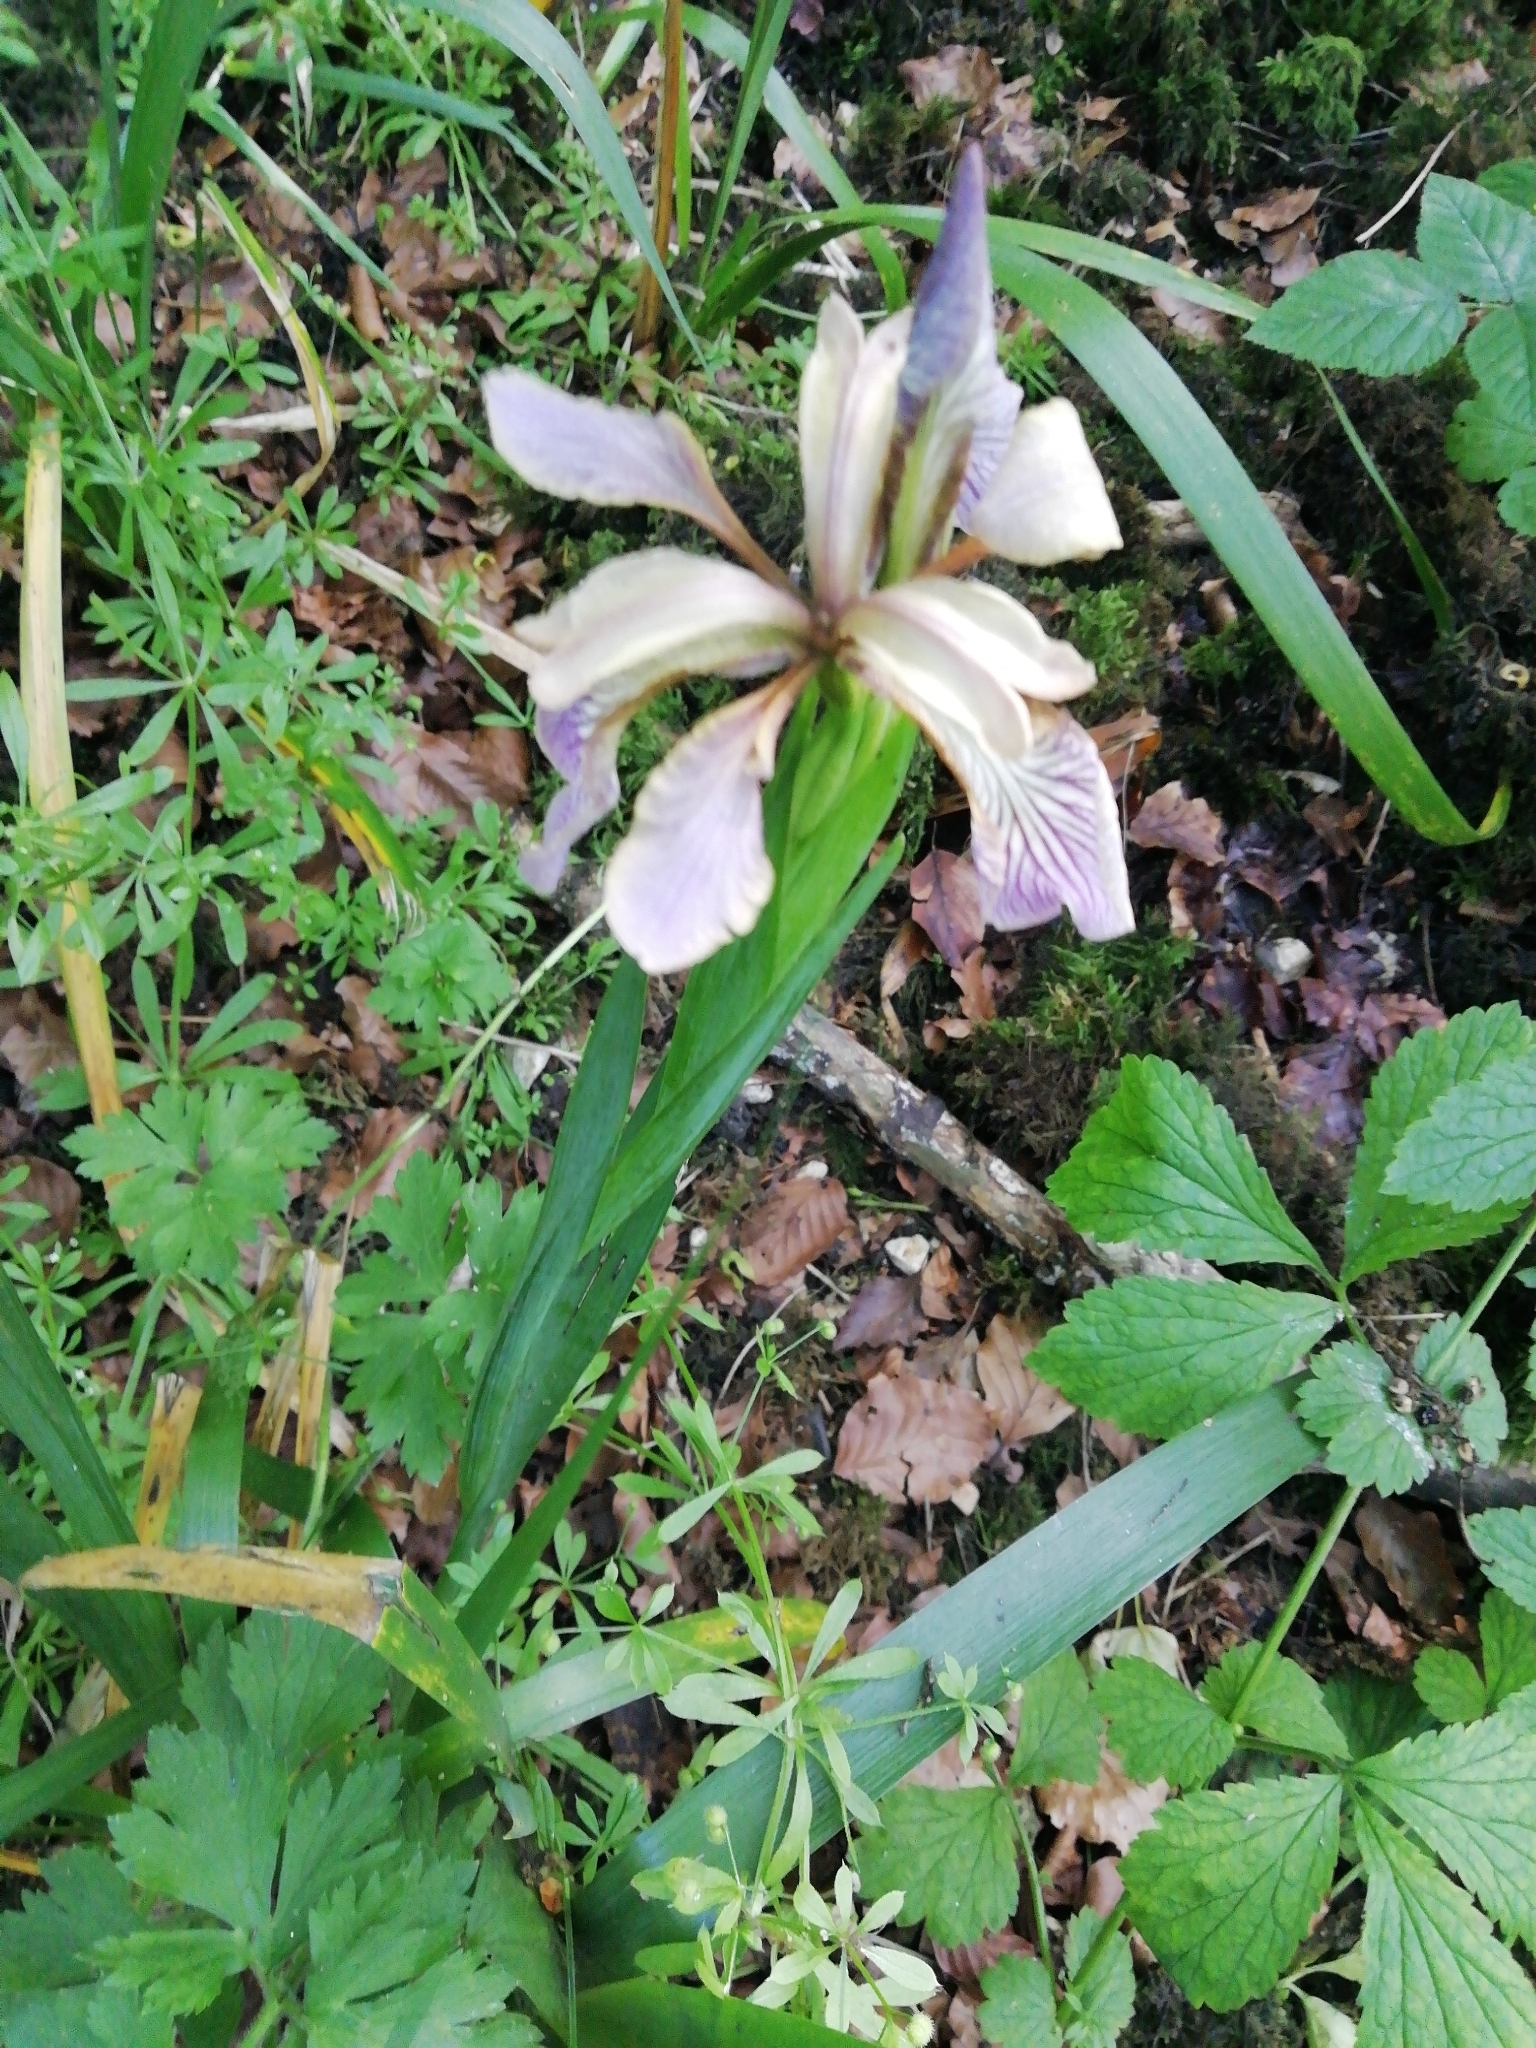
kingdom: Plantae
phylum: Tracheophyta
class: Liliopsida
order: Asparagales
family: Iridaceae
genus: Iris
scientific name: Iris foetidissima
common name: Stinking iris
